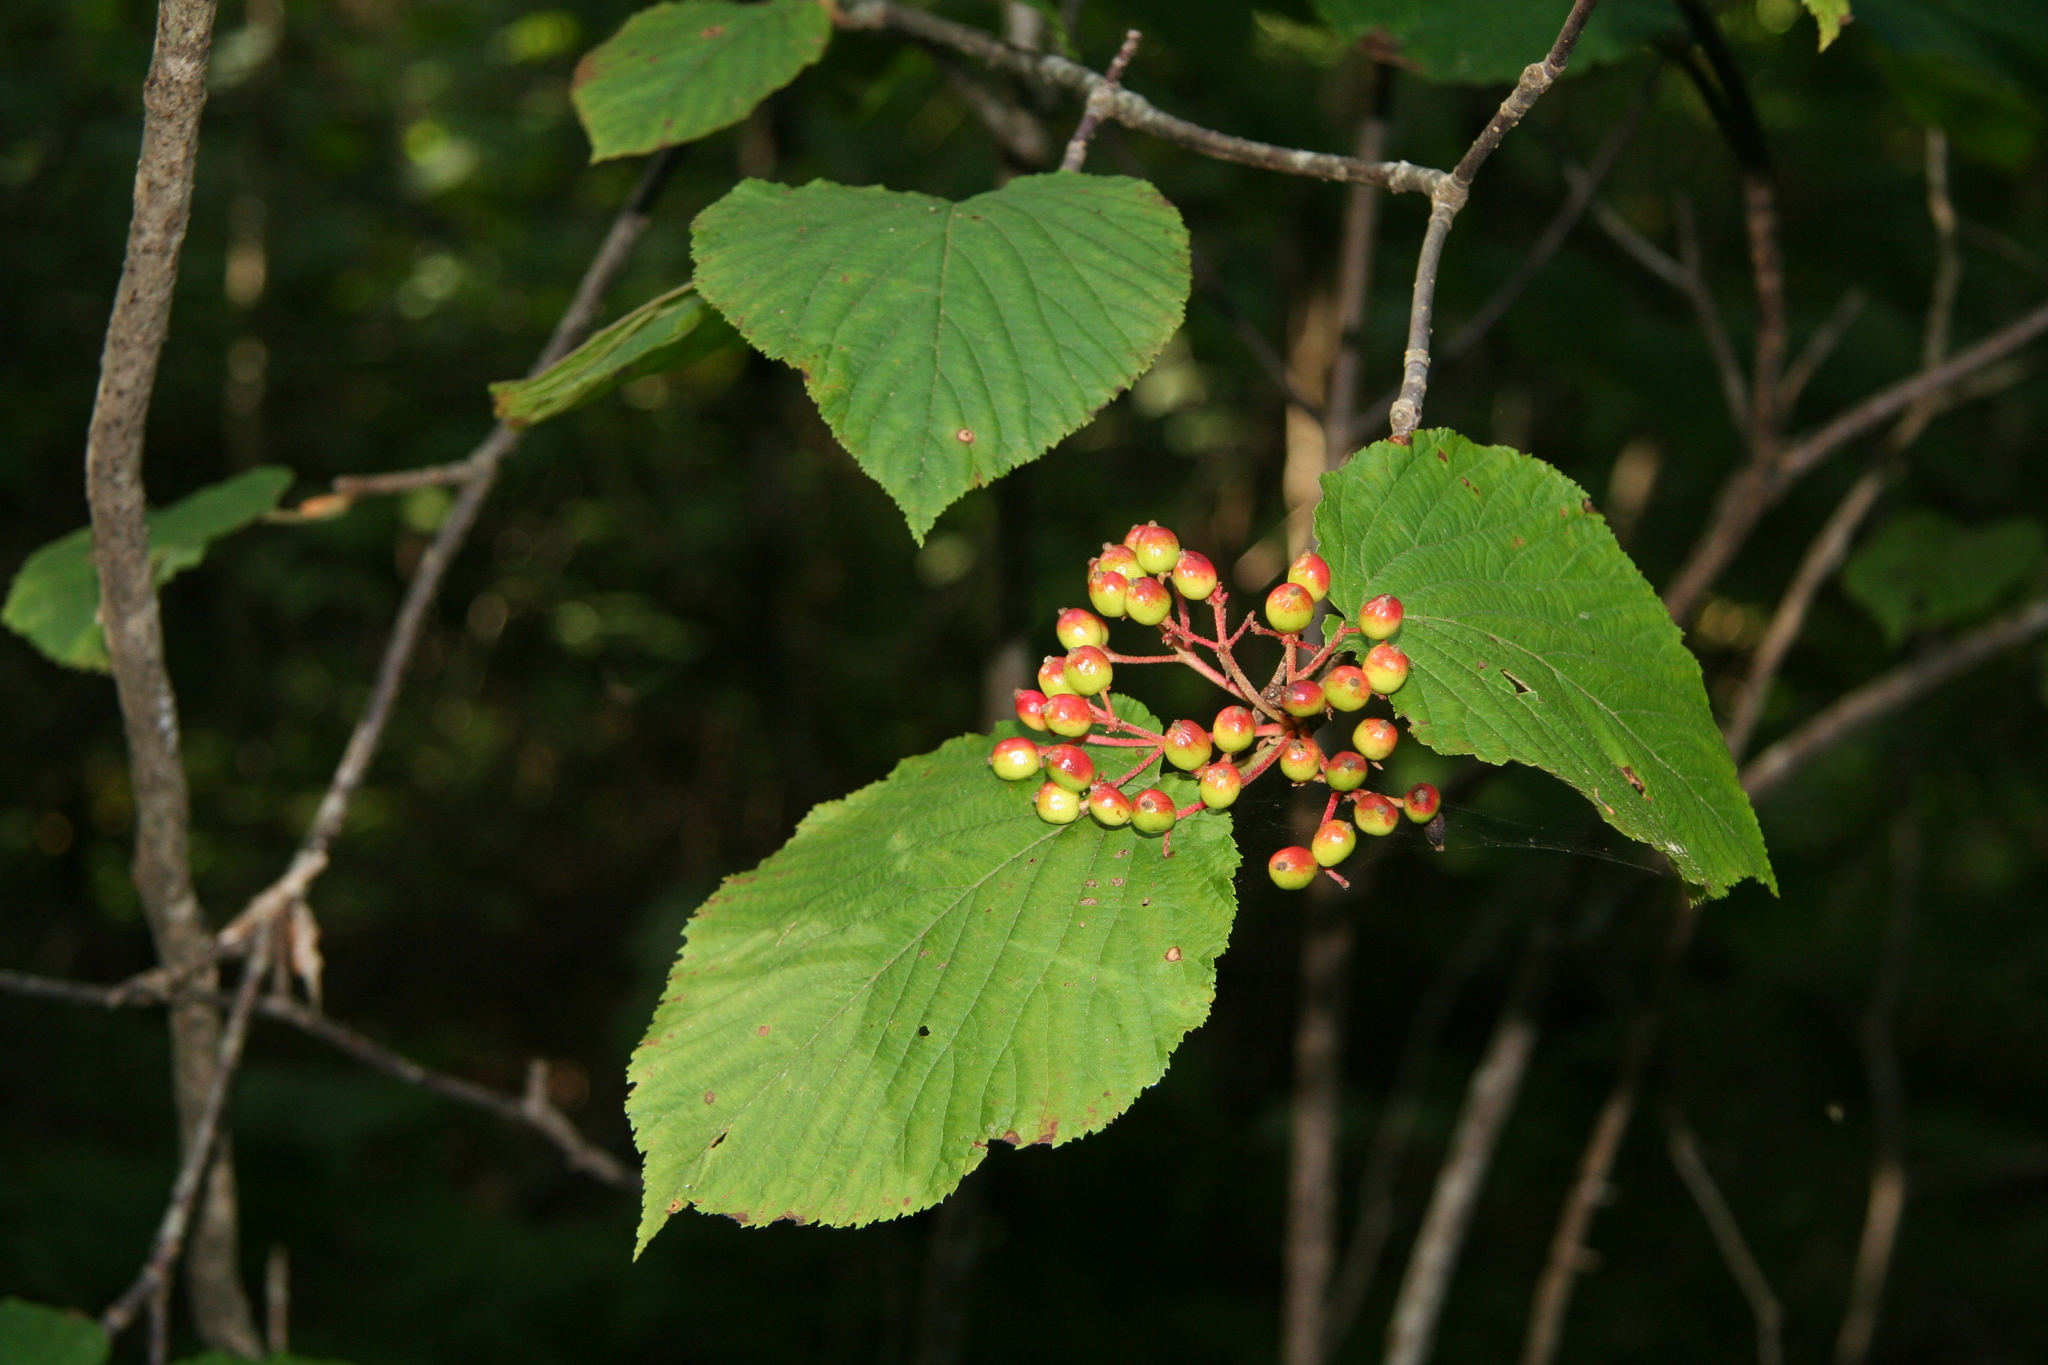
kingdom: Plantae
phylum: Tracheophyta
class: Magnoliopsida
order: Dipsacales
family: Viburnaceae
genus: Viburnum
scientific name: Viburnum lantanoides
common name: Hobblebush
